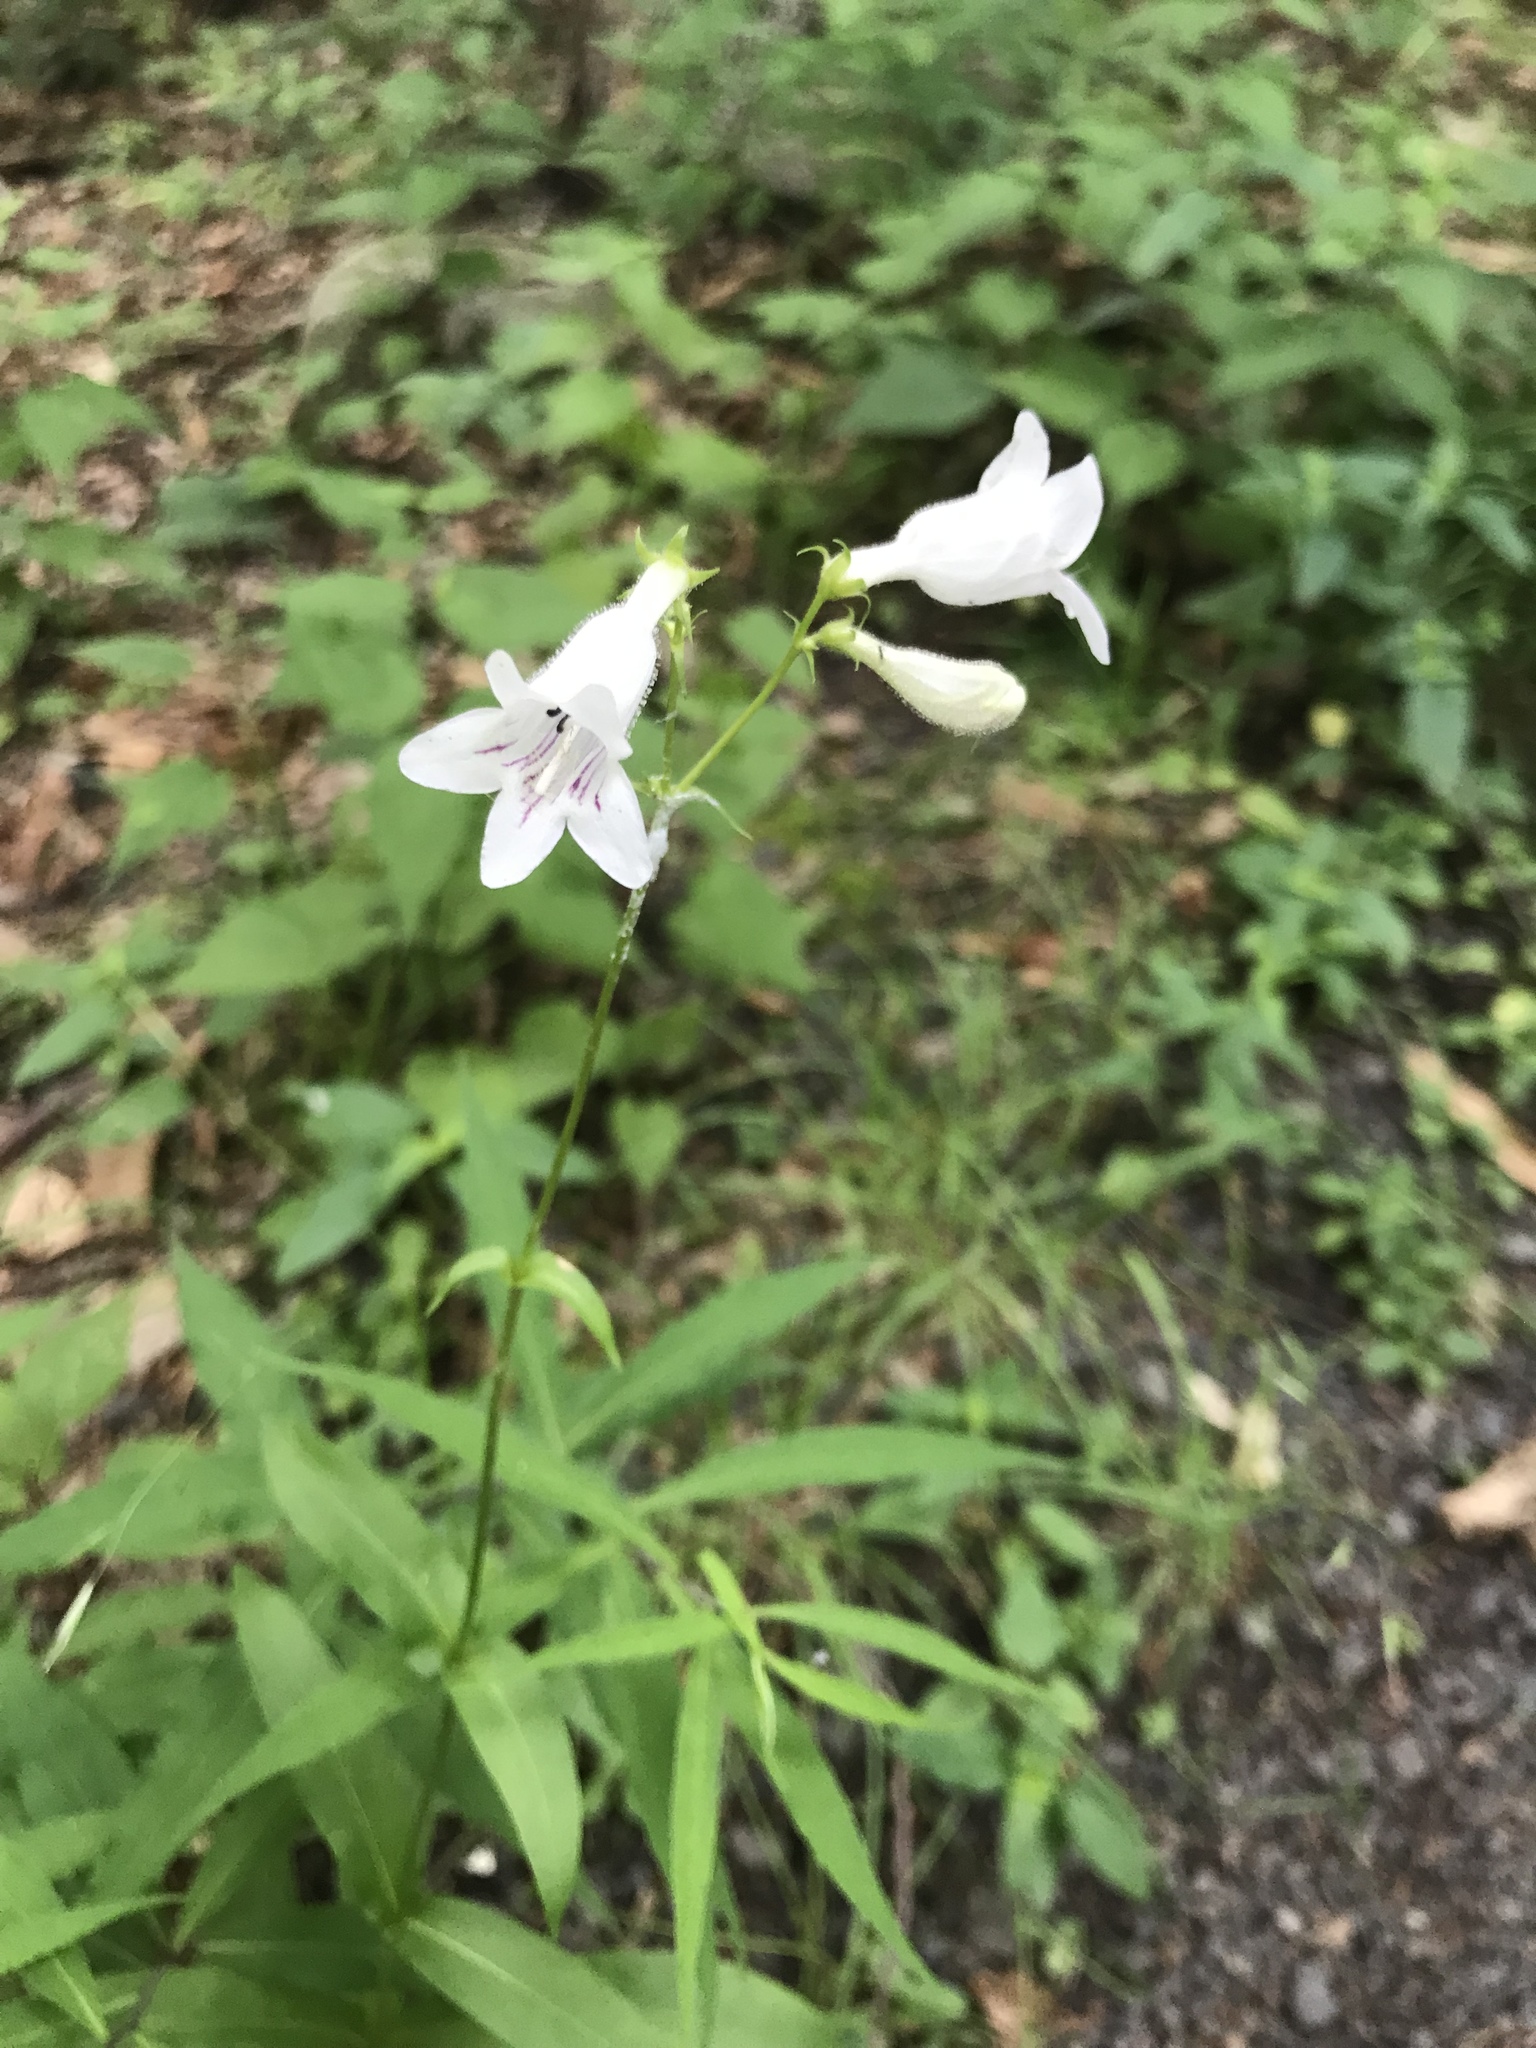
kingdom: Plantae
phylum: Tracheophyta
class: Magnoliopsida
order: Lamiales
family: Plantaginaceae
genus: Penstemon
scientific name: Penstemon digitalis
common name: Foxglove beardtongue
